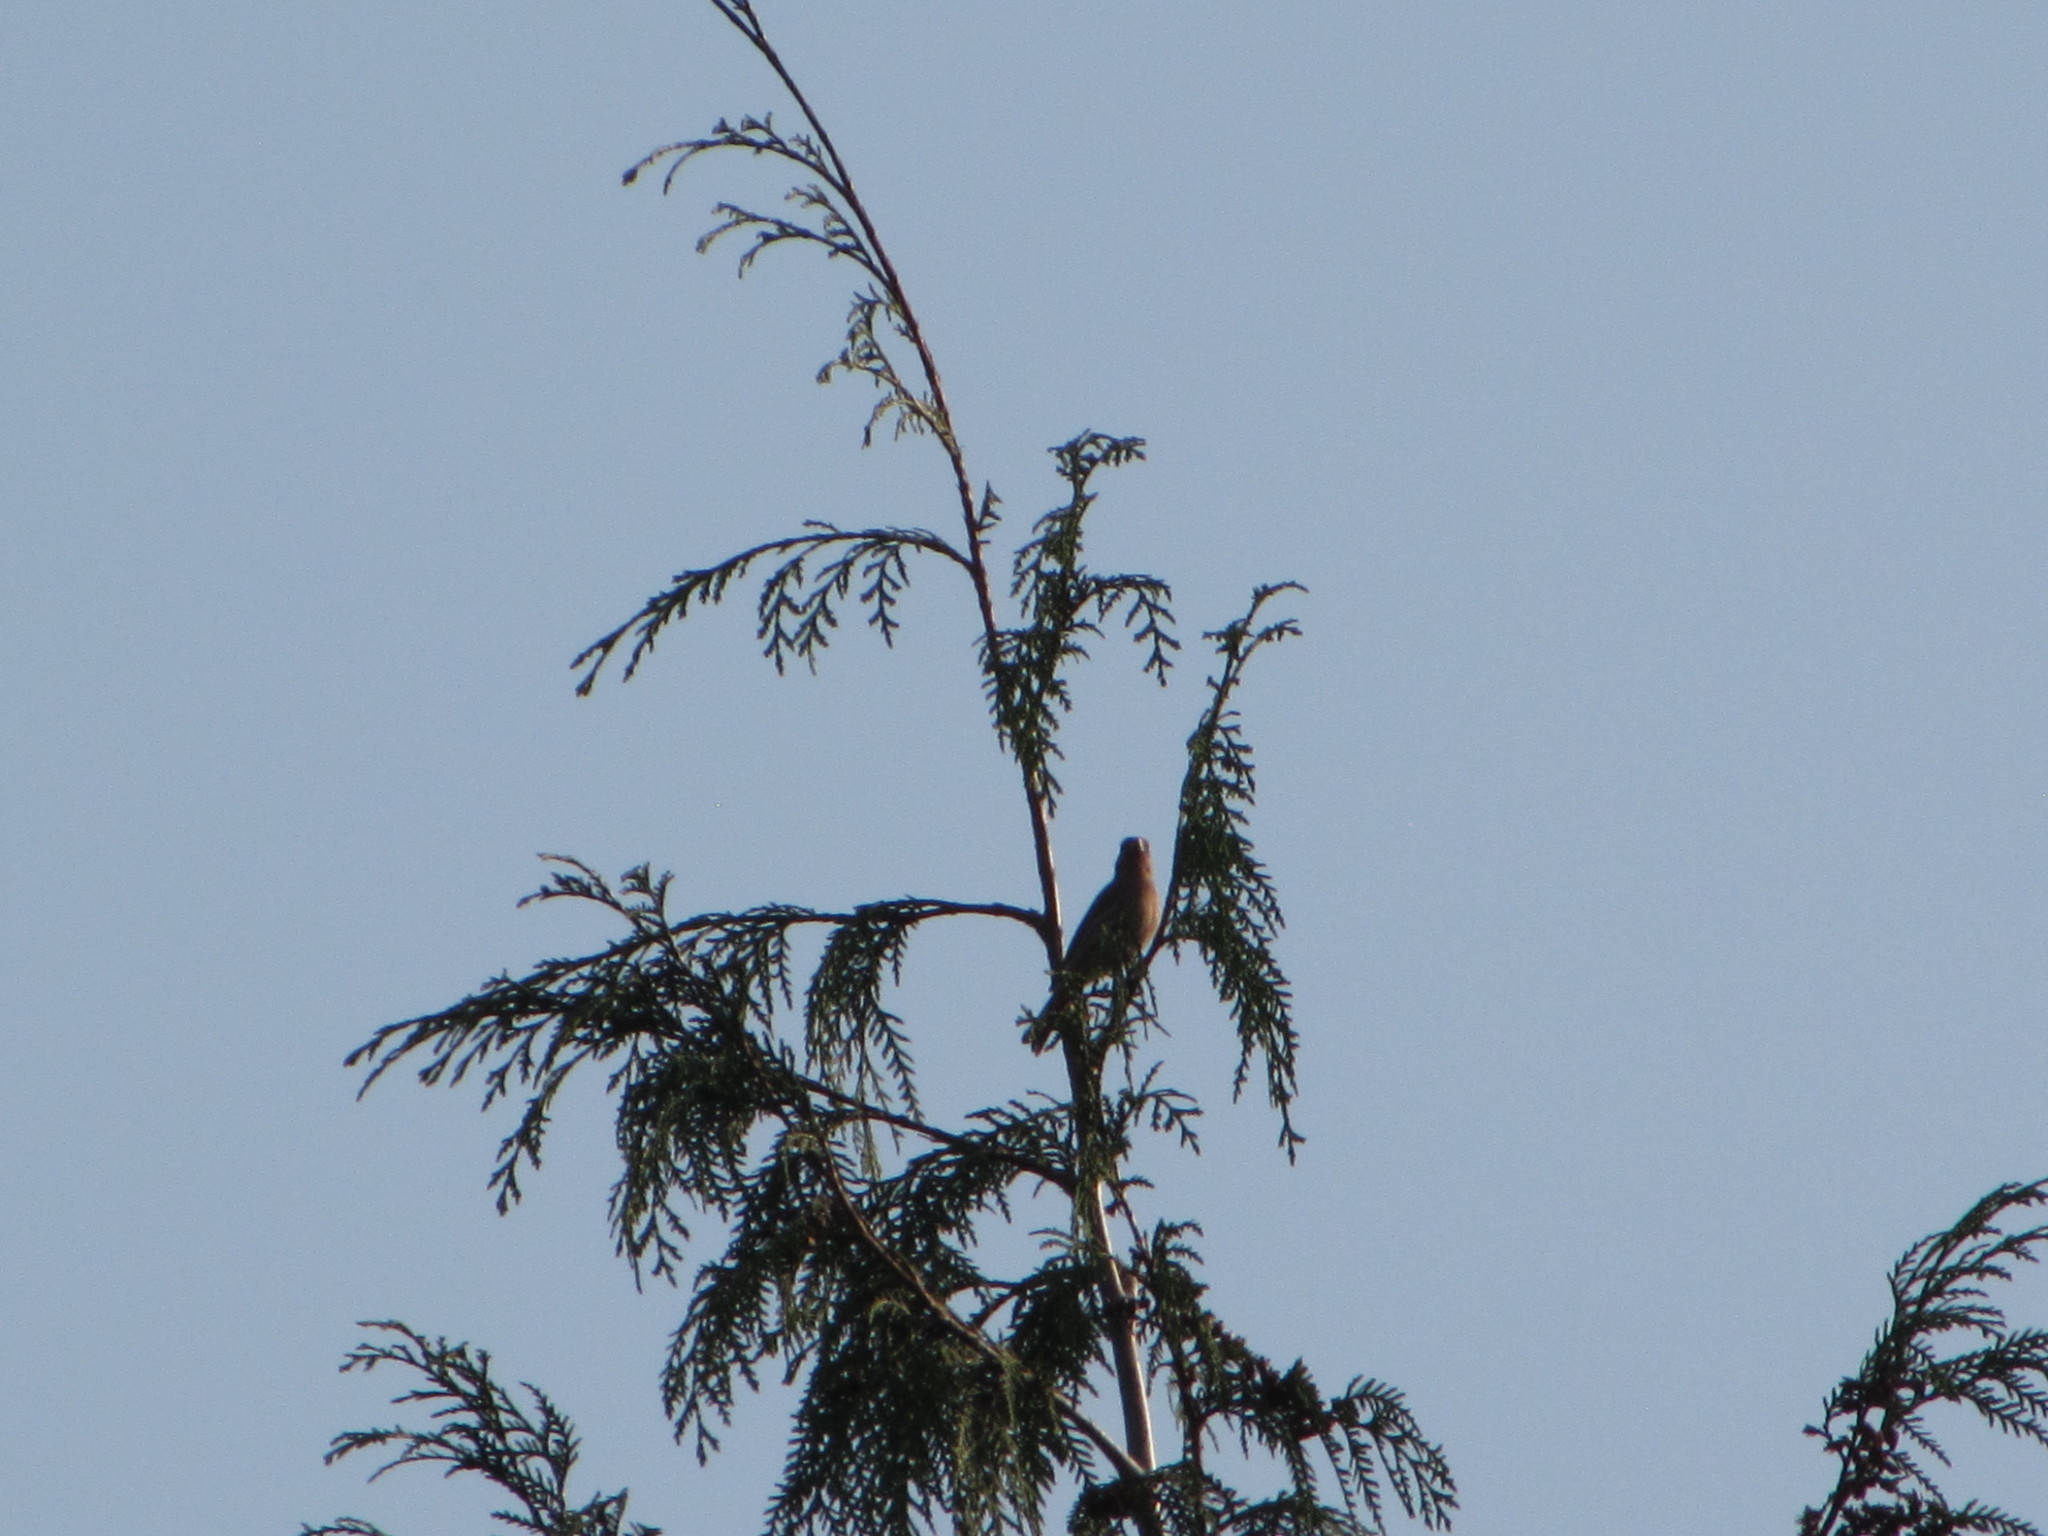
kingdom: Animalia
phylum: Chordata
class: Aves
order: Passeriformes
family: Fringillidae
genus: Haemorhous
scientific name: Haemorhous mexicanus
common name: House finch
